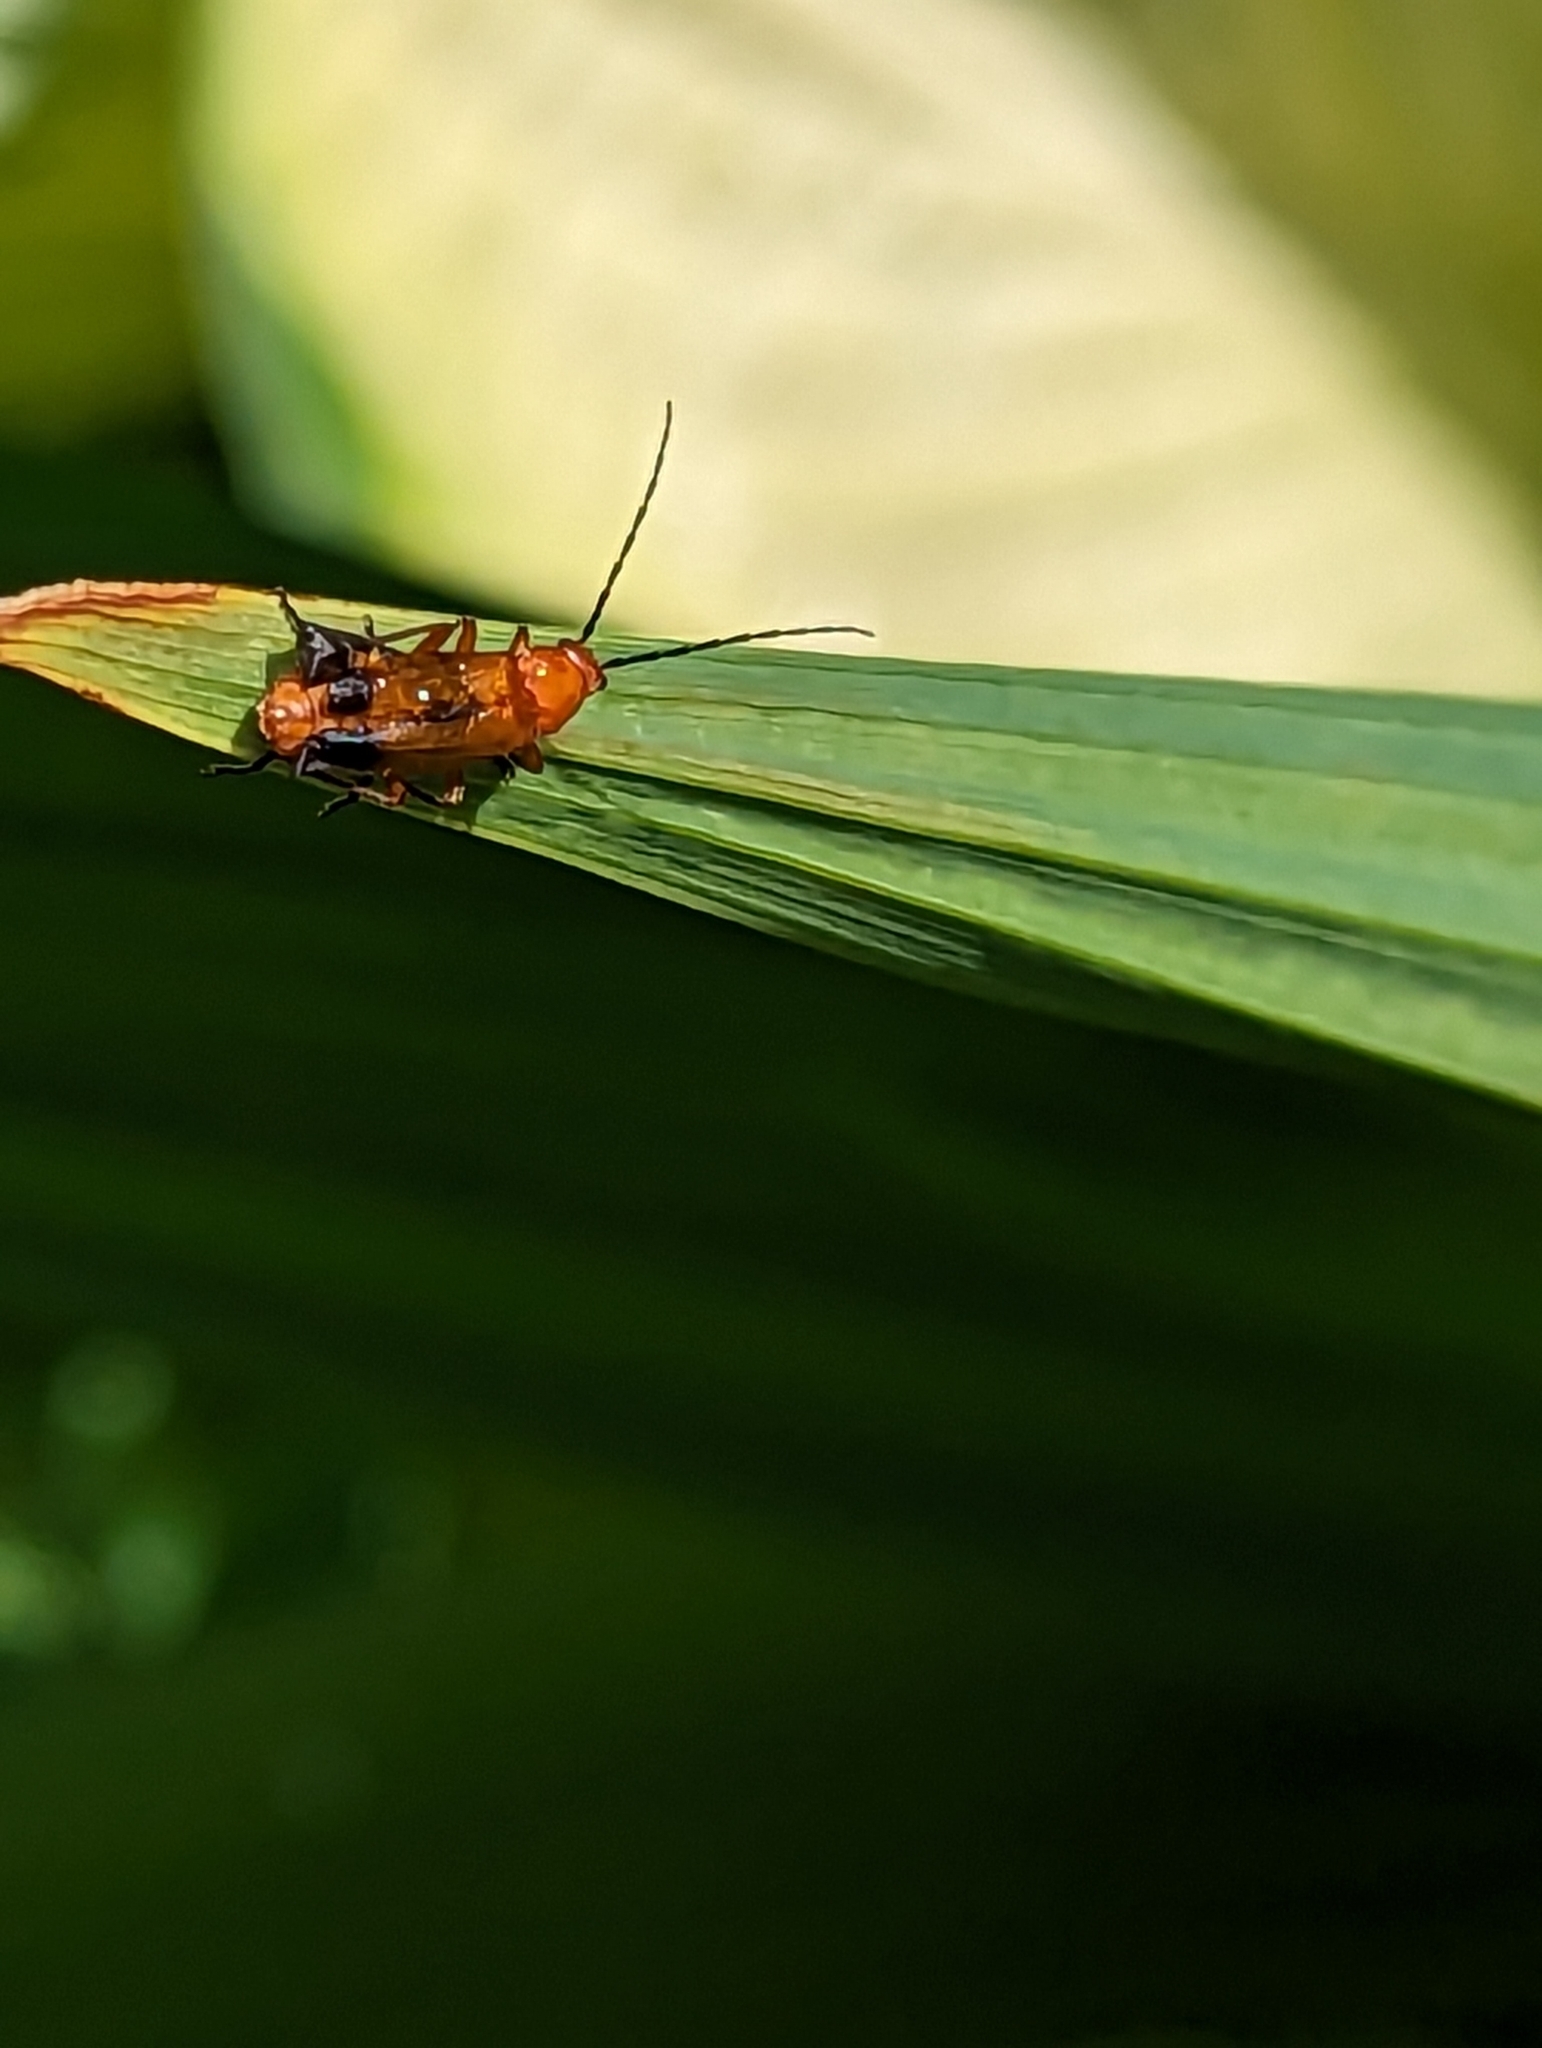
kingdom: Animalia
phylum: Arthropoda
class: Insecta
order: Coleoptera
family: Cantharidae
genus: Rhagonycha
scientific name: Rhagonycha fulva
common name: Common red soldier beetle
